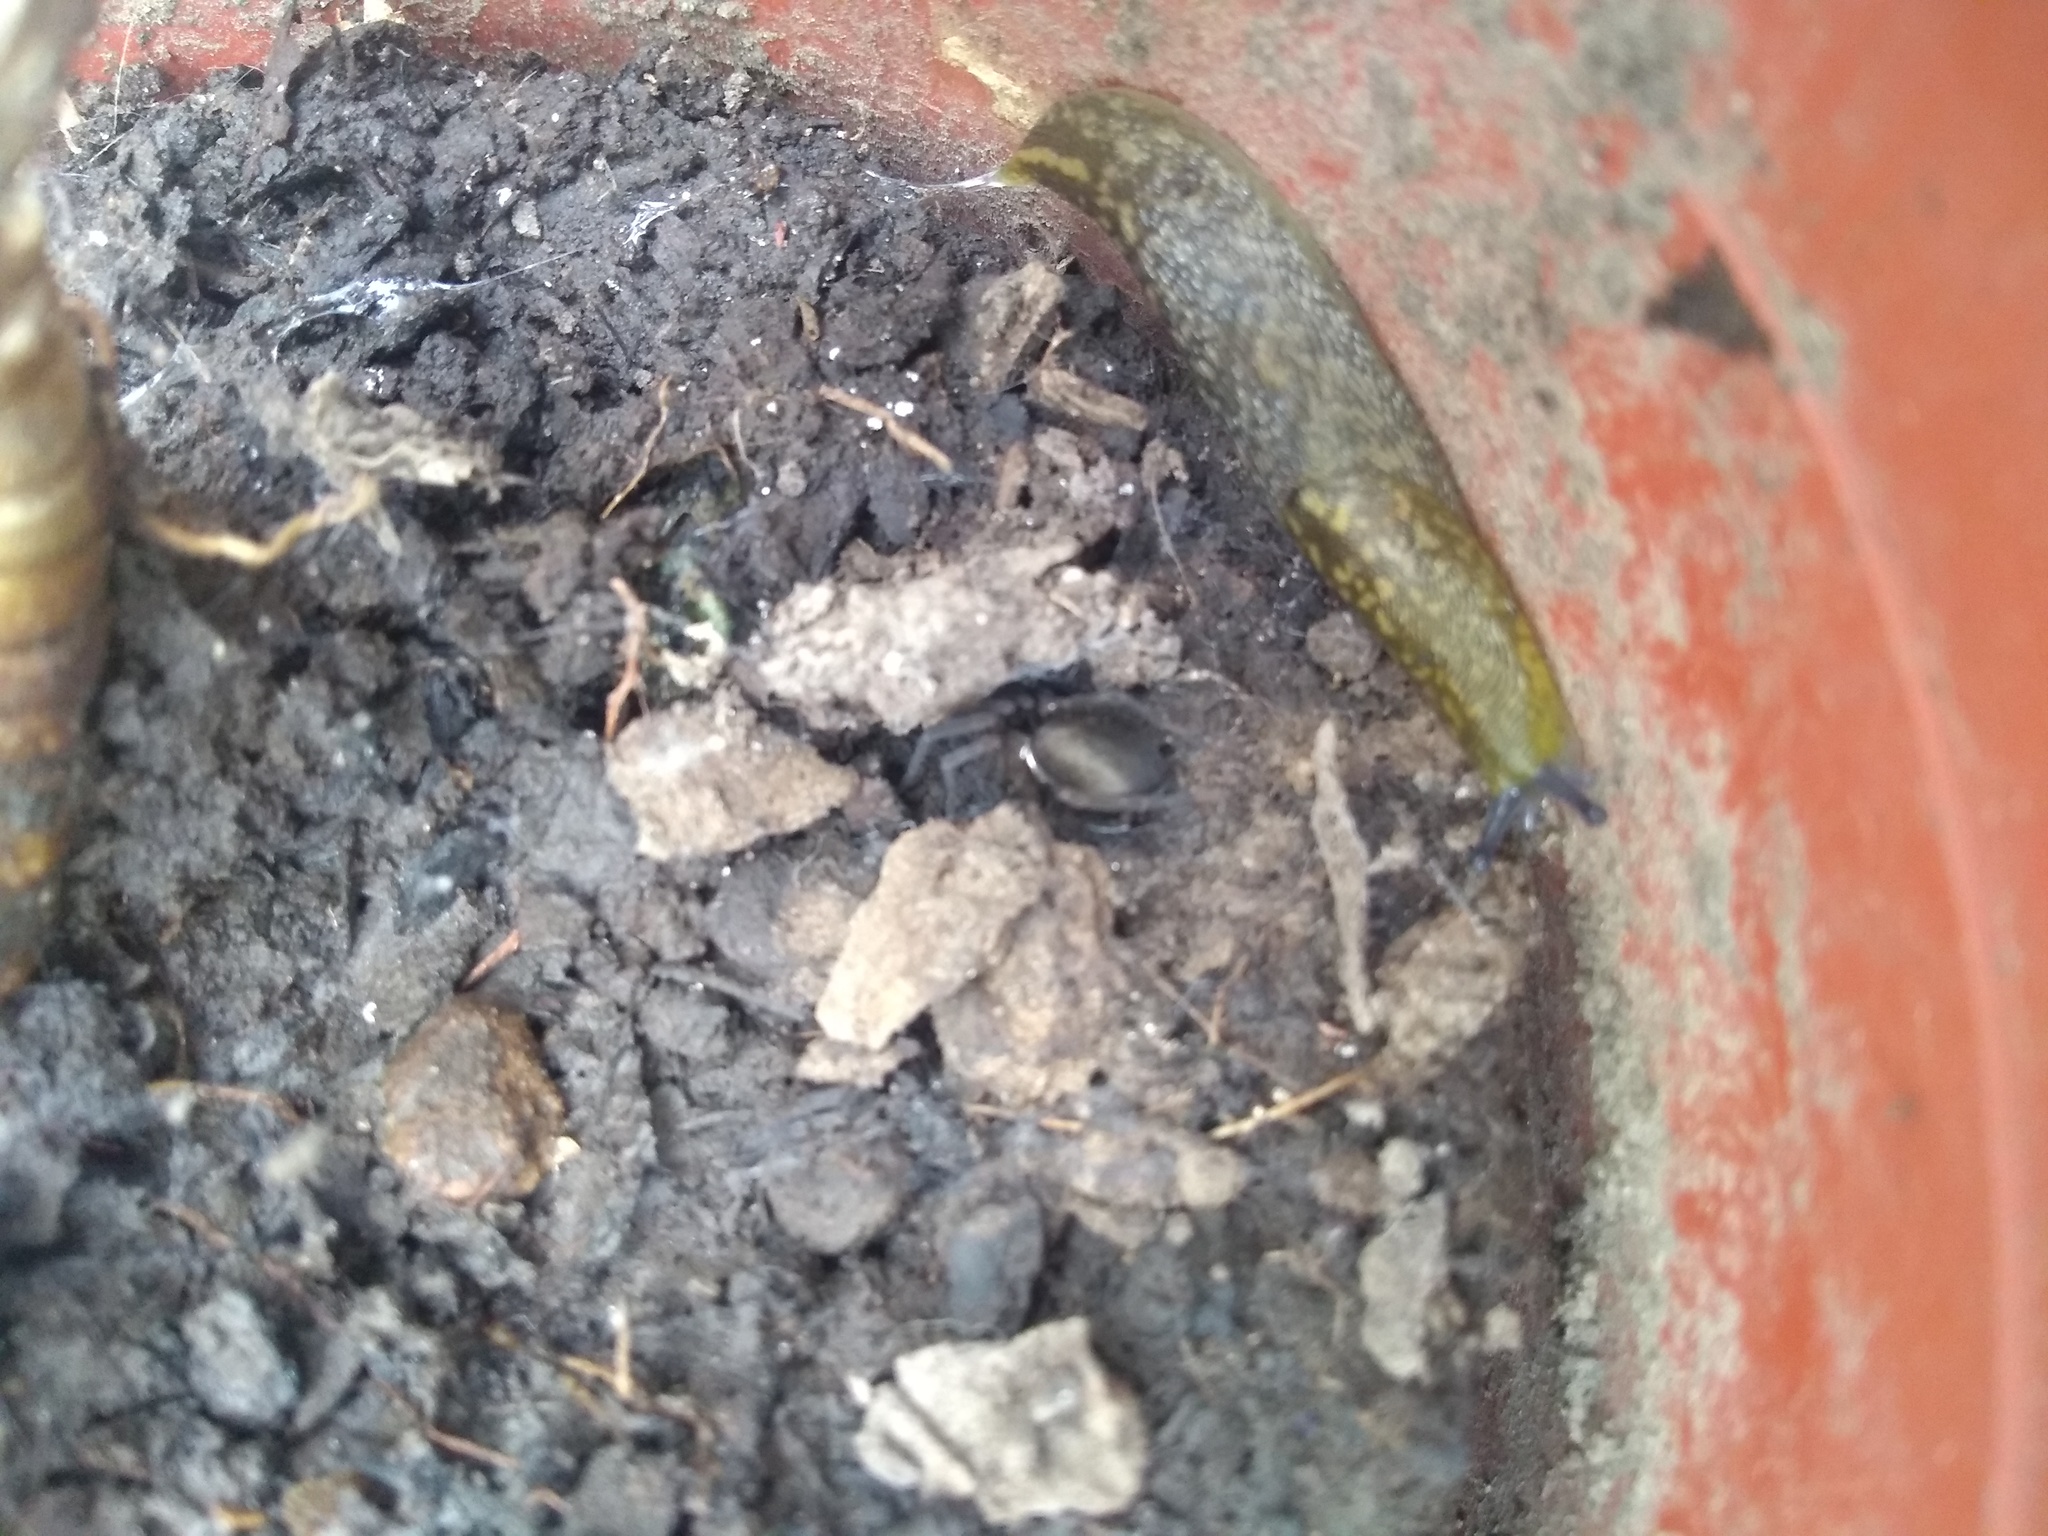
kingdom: Animalia
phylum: Mollusca
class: Gastropoda
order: Stylommatophora
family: Limacidae
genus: Limacus
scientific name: Limacus flavus
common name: Yellow gardenslug
